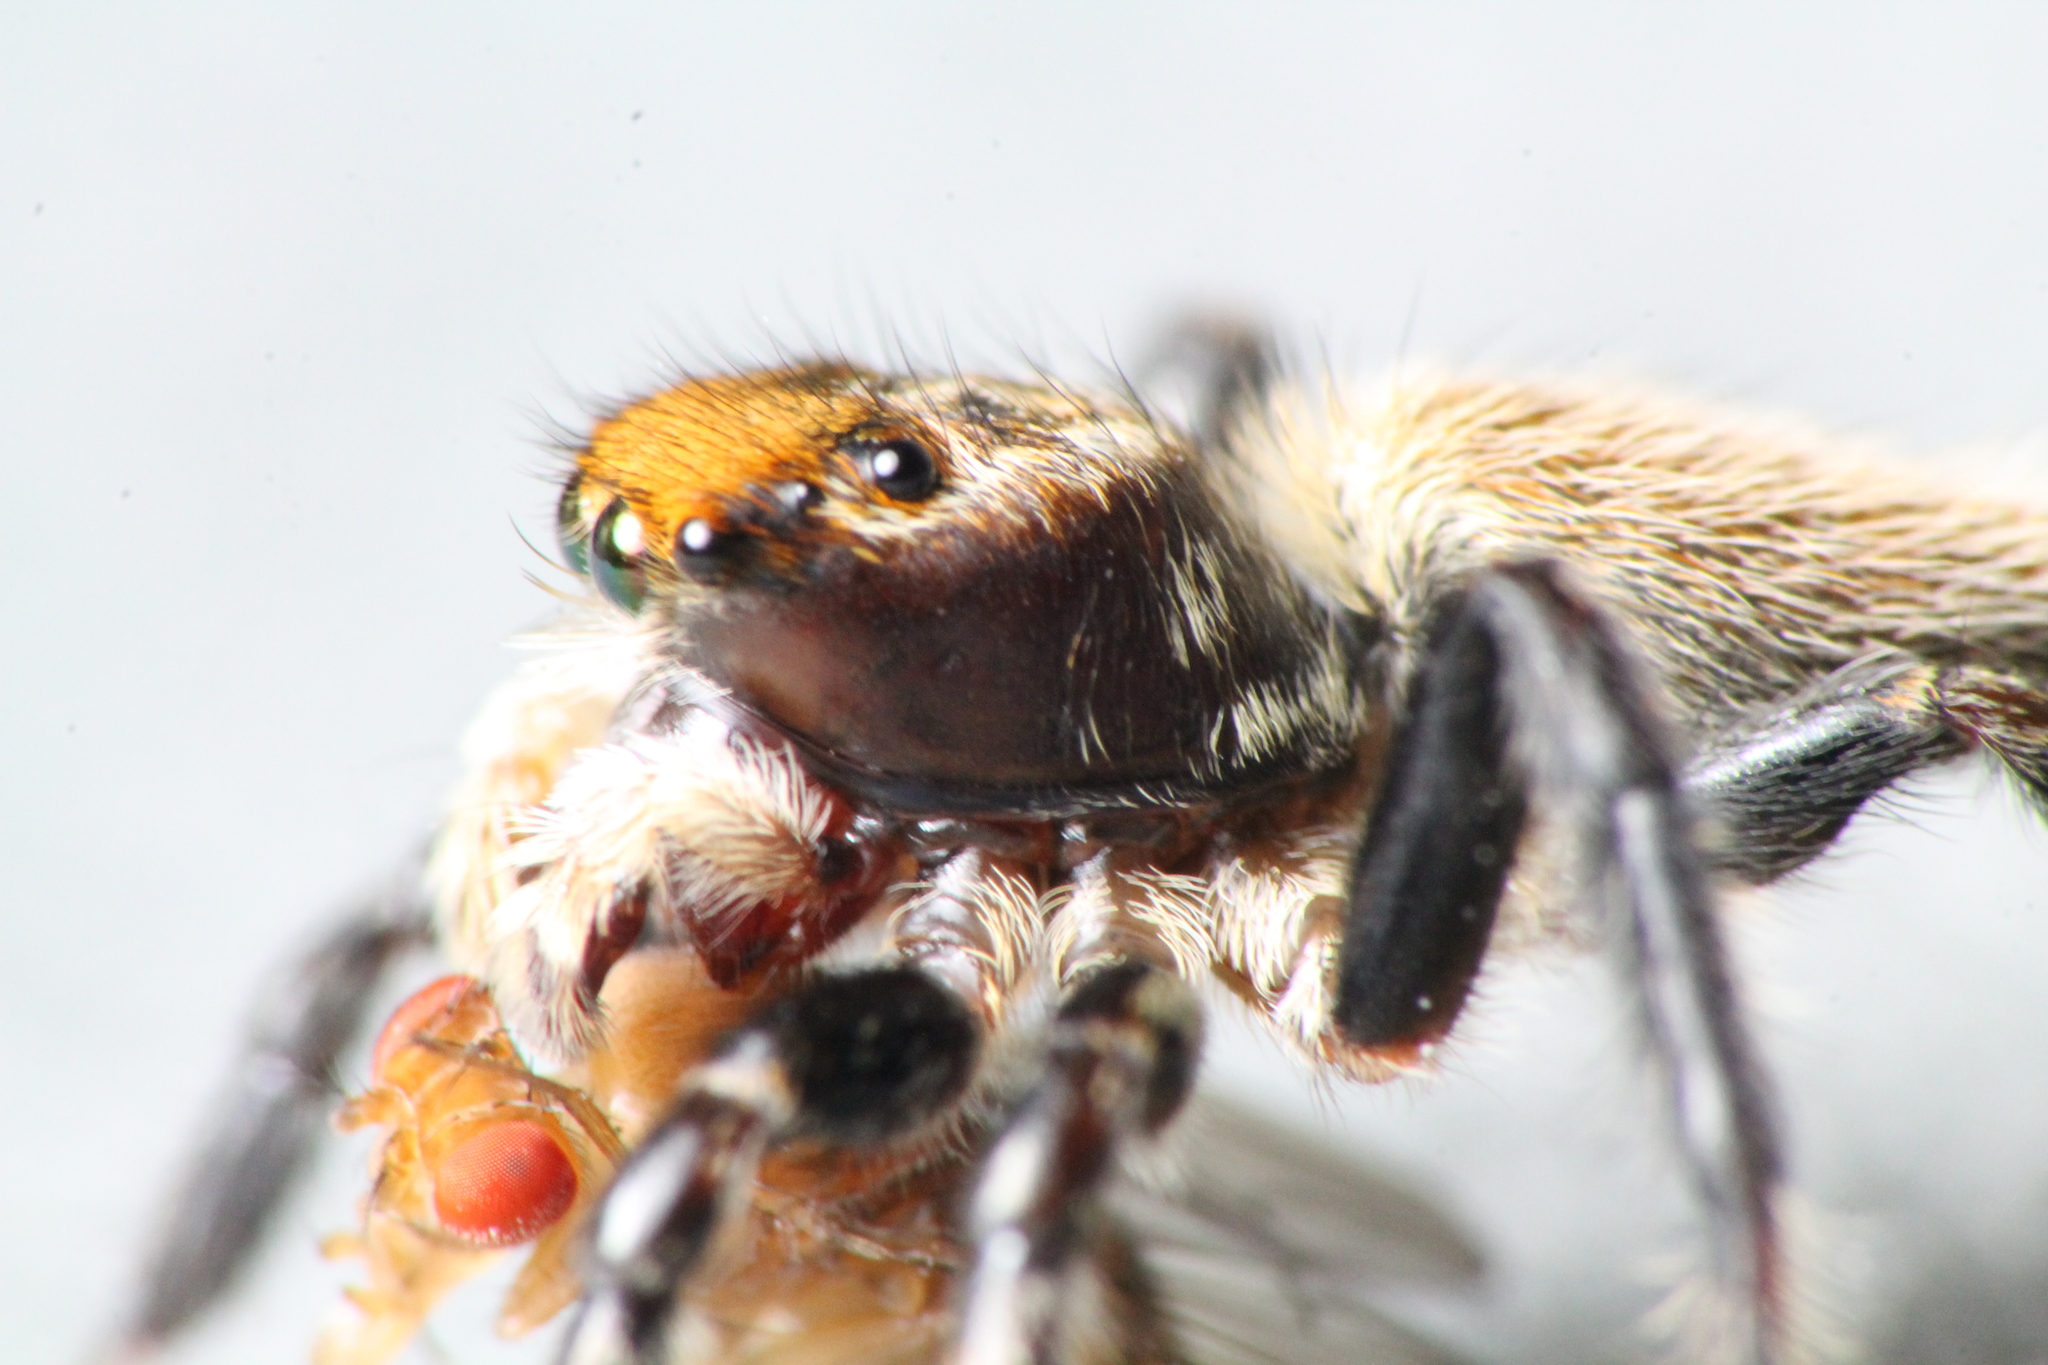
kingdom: Animalia
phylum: Arthropoda
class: Arachnida
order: Araneae
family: Salticidae
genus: Maratus
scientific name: Maratus griseus
